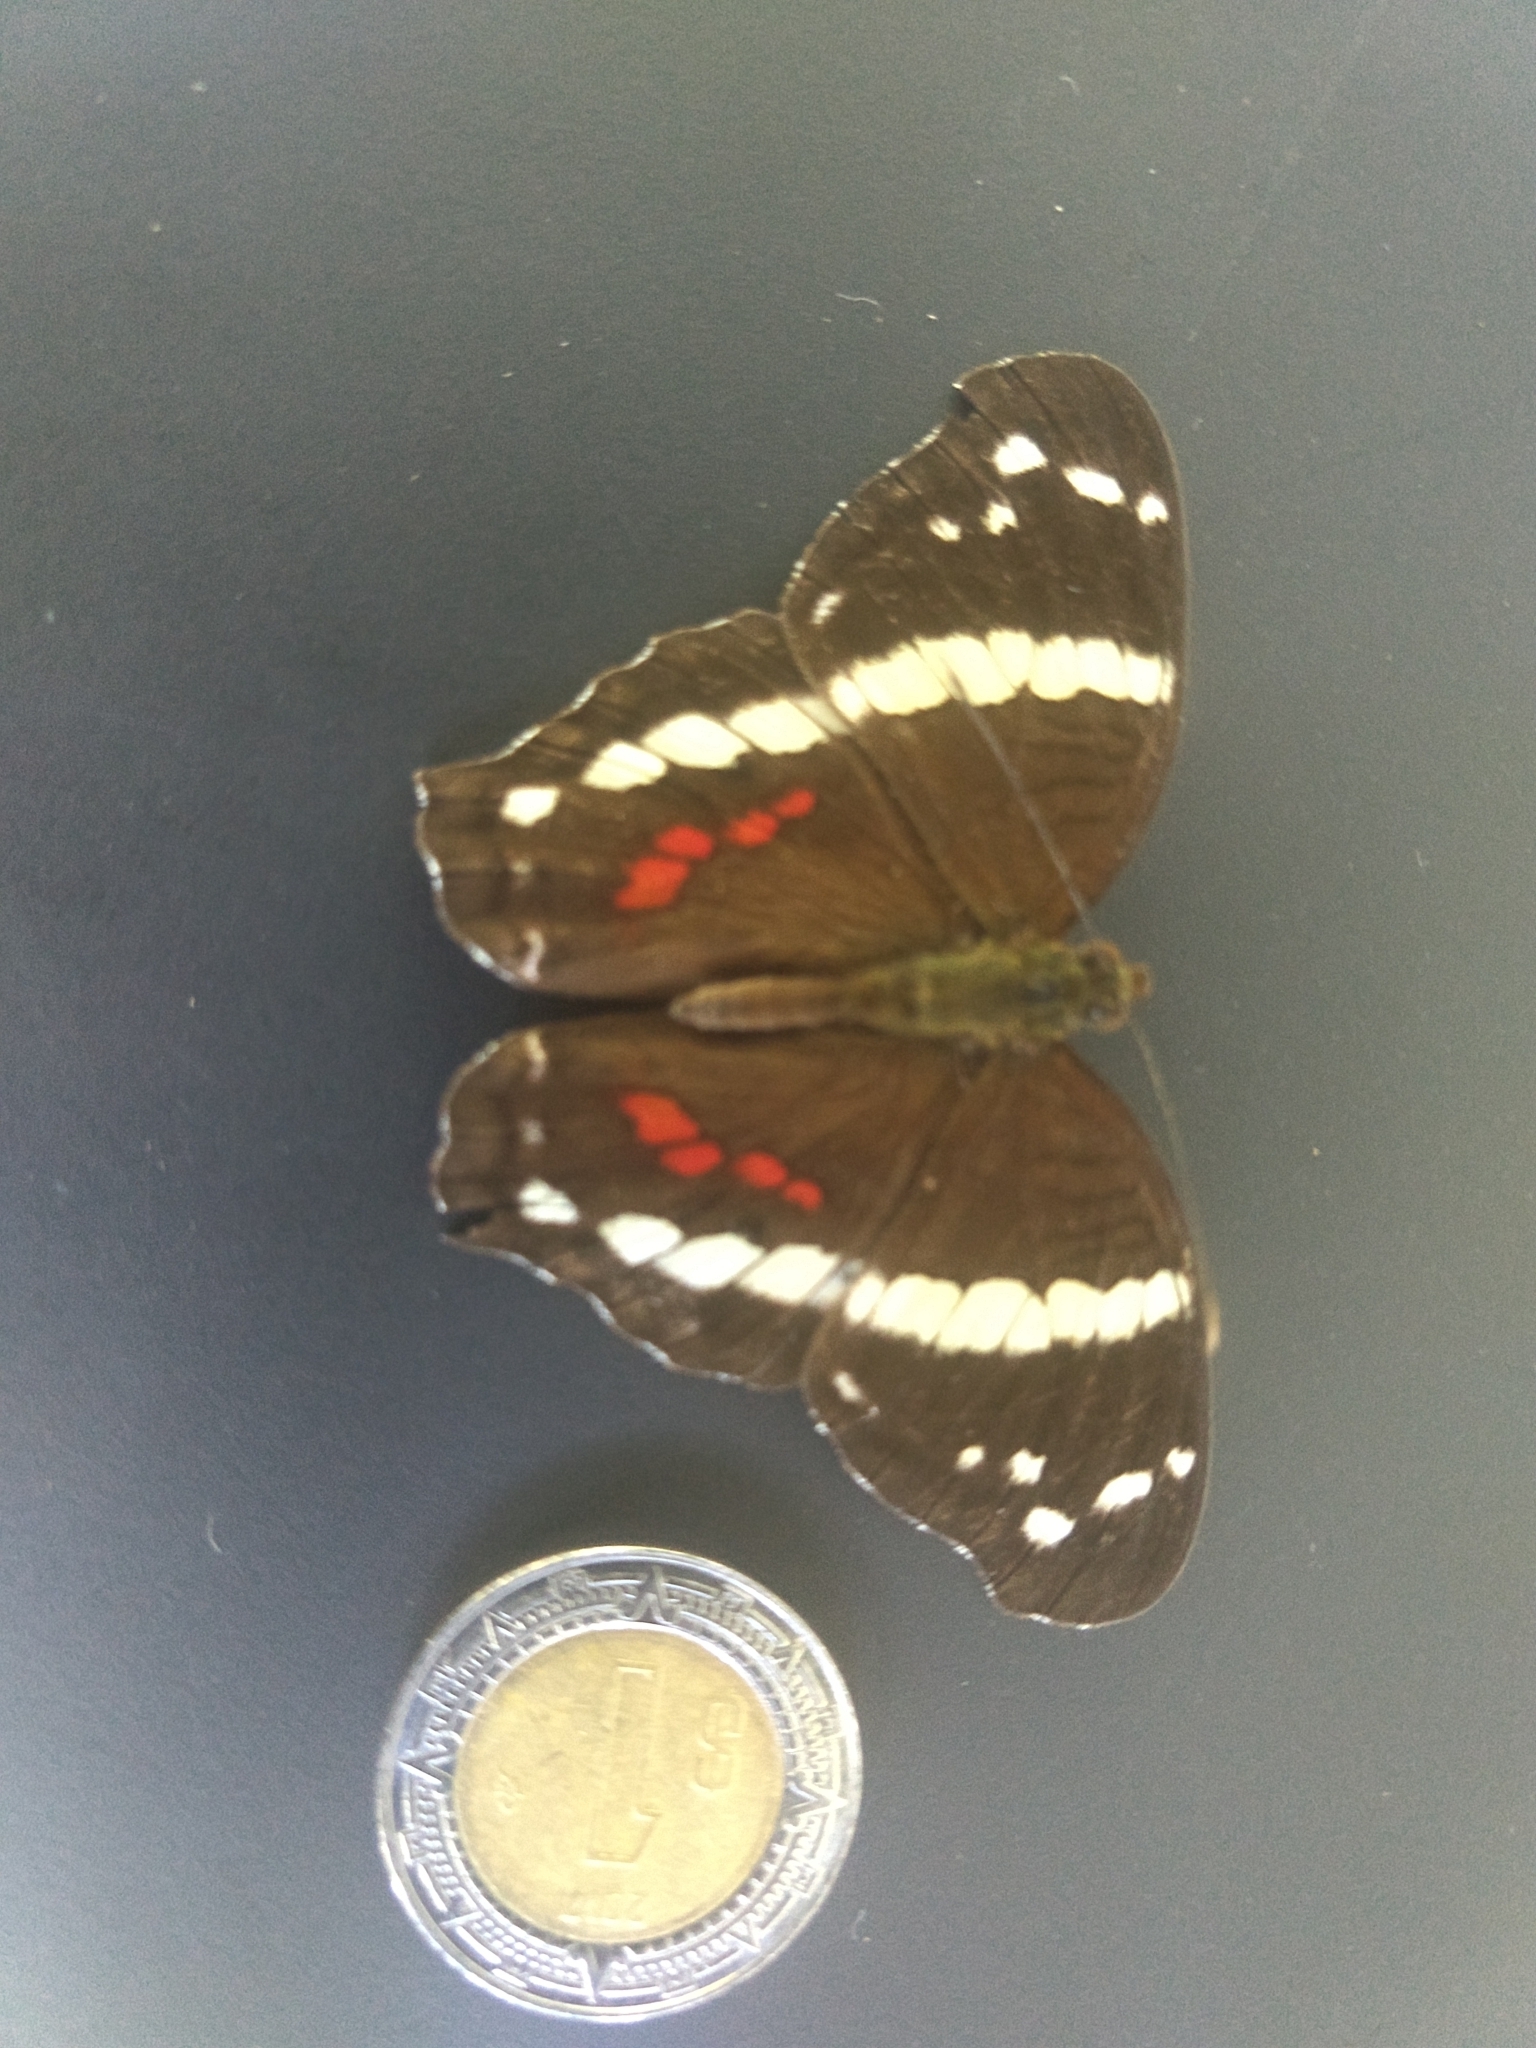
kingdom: Animalia
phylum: Arthropoda
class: Insecta
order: Lepidoptera
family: Nymphalidae
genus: Anartia
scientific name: Anartia fatima
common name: Banded peacock
